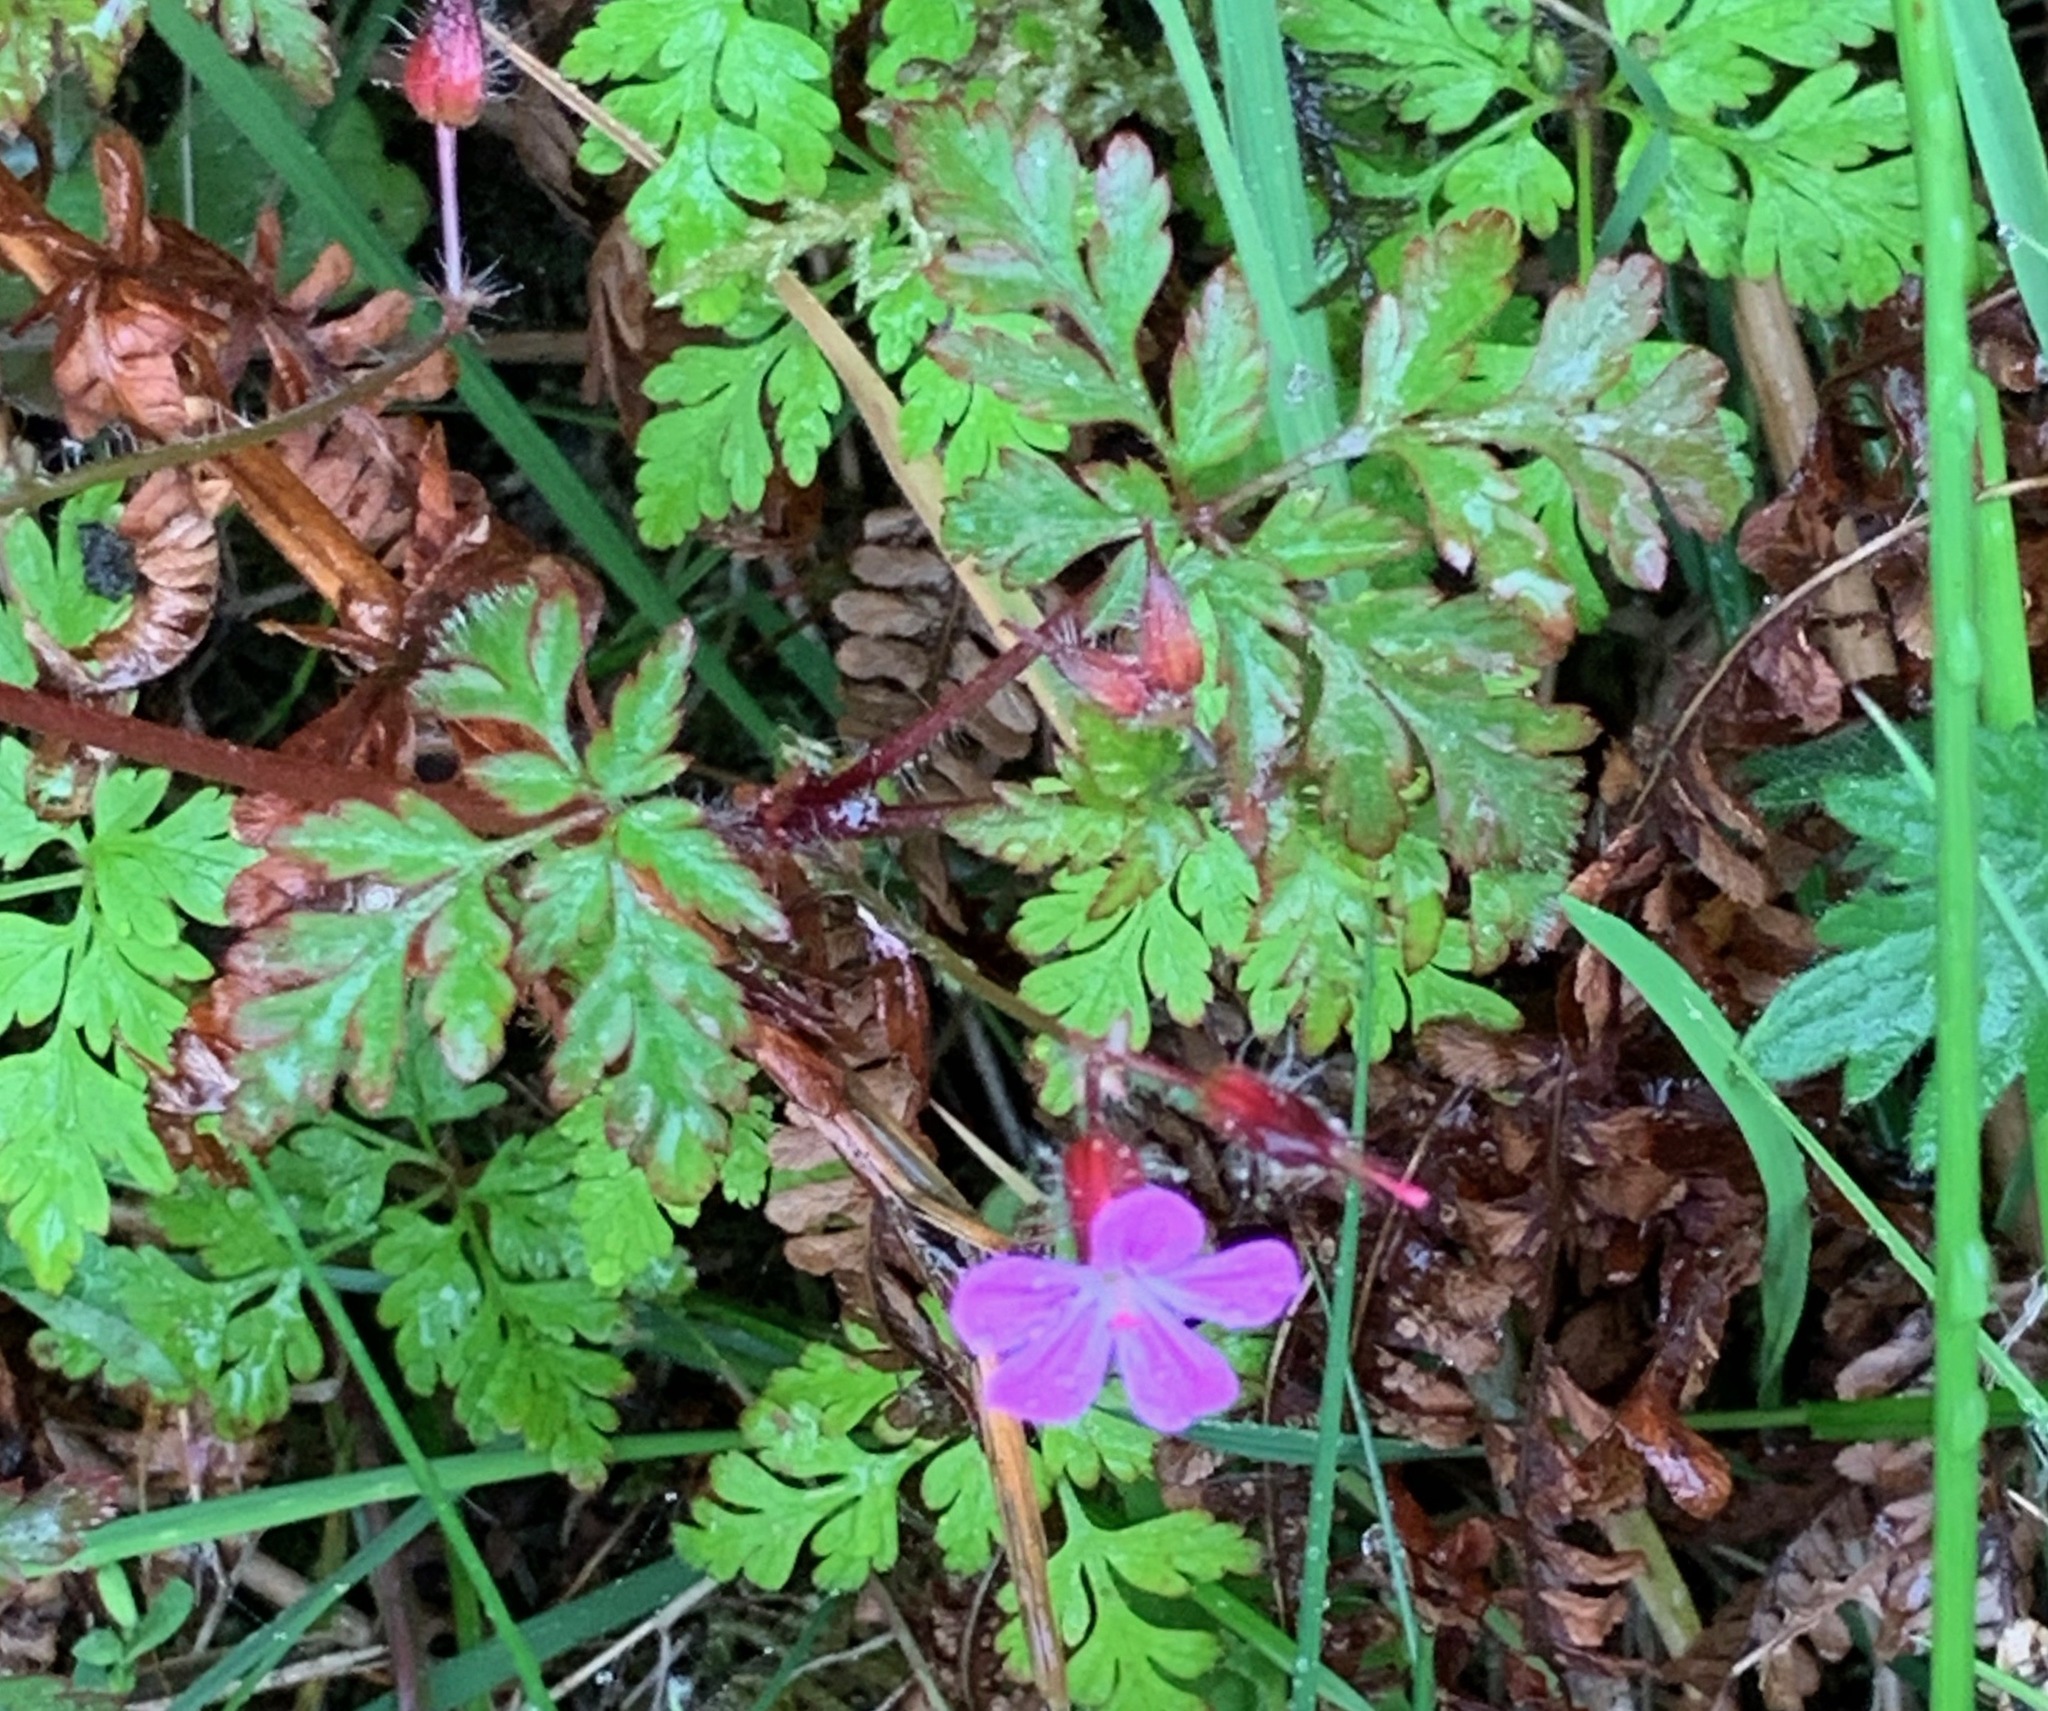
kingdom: Plantae
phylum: Tracheophyta
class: Magnoliopsida
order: Geraniales
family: Geraniaceae
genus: Geranium
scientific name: Geranium robertianum
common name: Herb-robert
